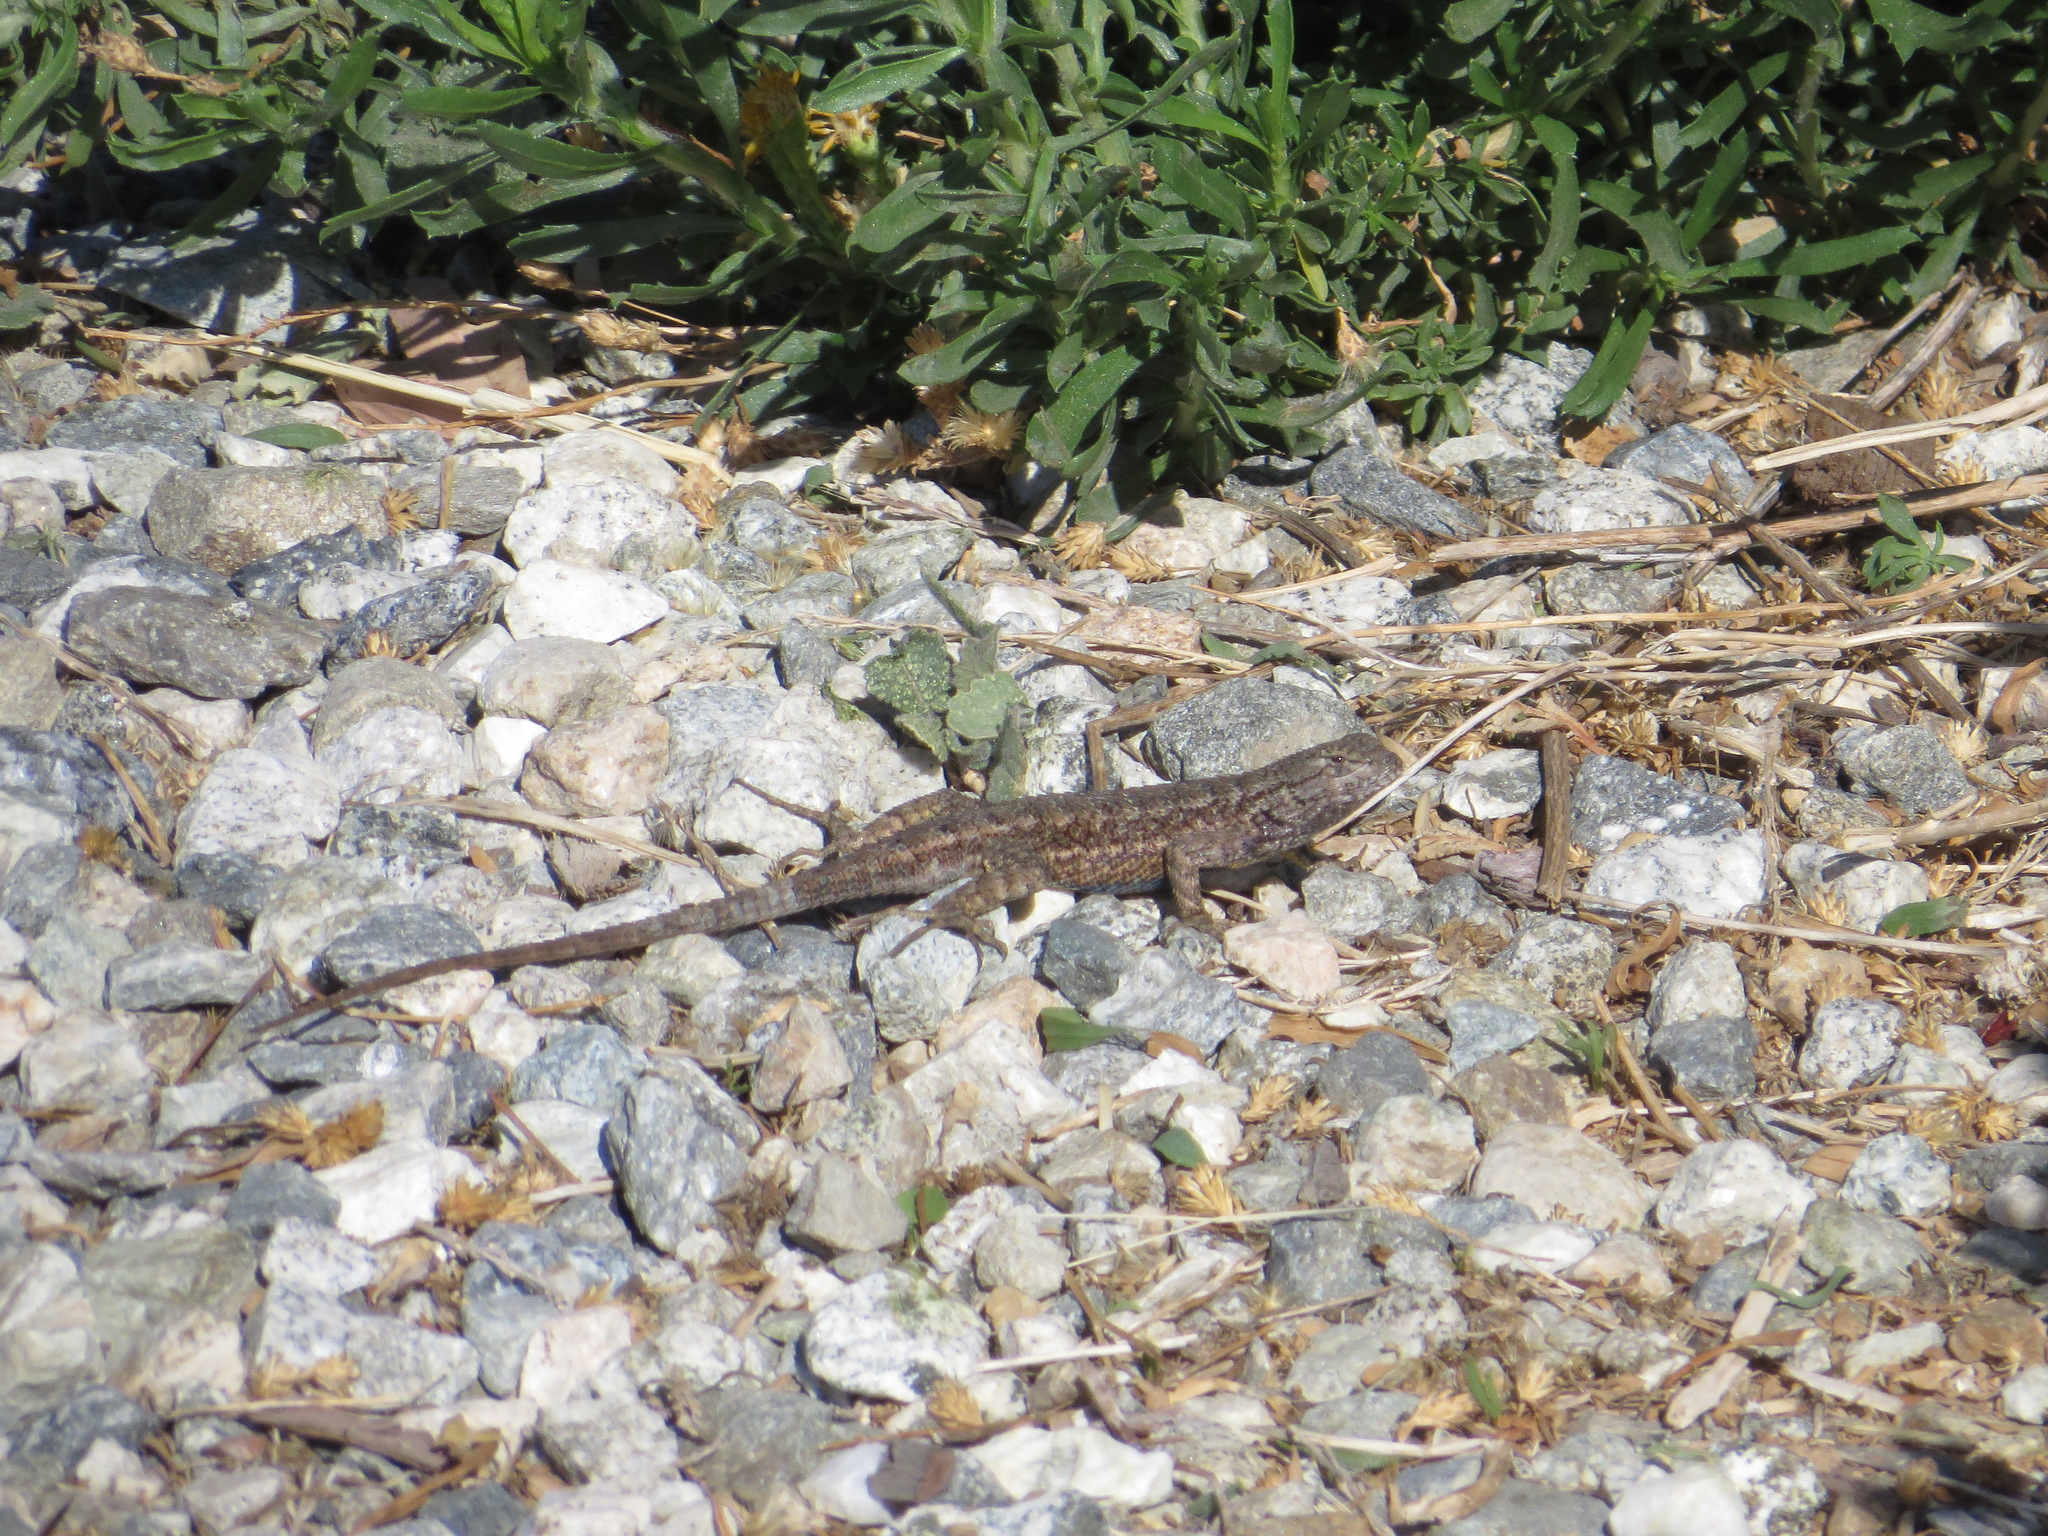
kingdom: Animalia
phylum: Chordata
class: Squamata
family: Phrynosomatidae
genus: Sceloporus
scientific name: Sceloporus occidentalis
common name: Western fence lizard
